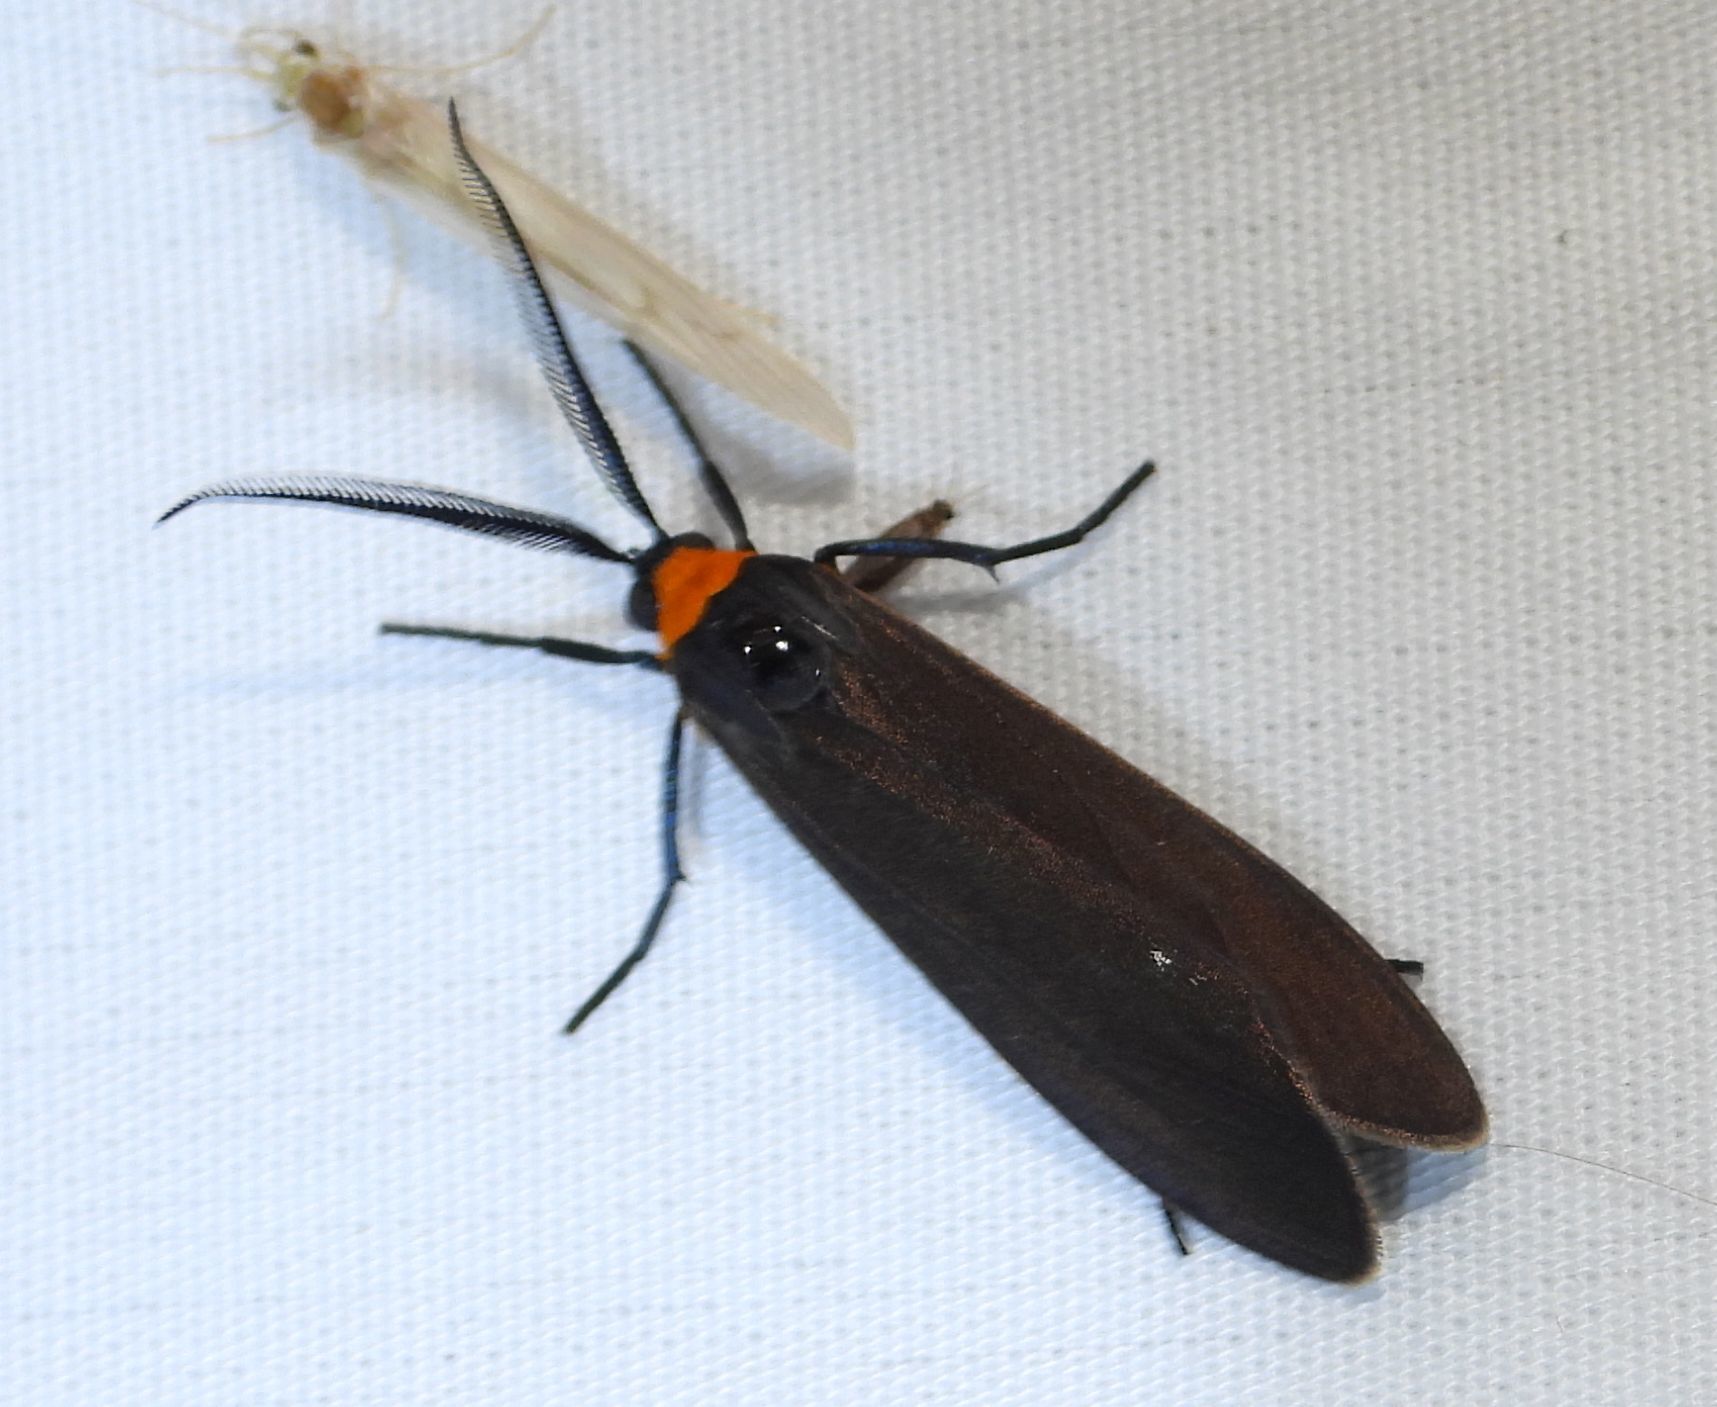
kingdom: Animalia
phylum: Arthropoda
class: Insecta
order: Lepidoptera
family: Erebidae
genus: Cisseps
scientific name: Cisseps fulvicollis
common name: Yellow-collared scape moth
